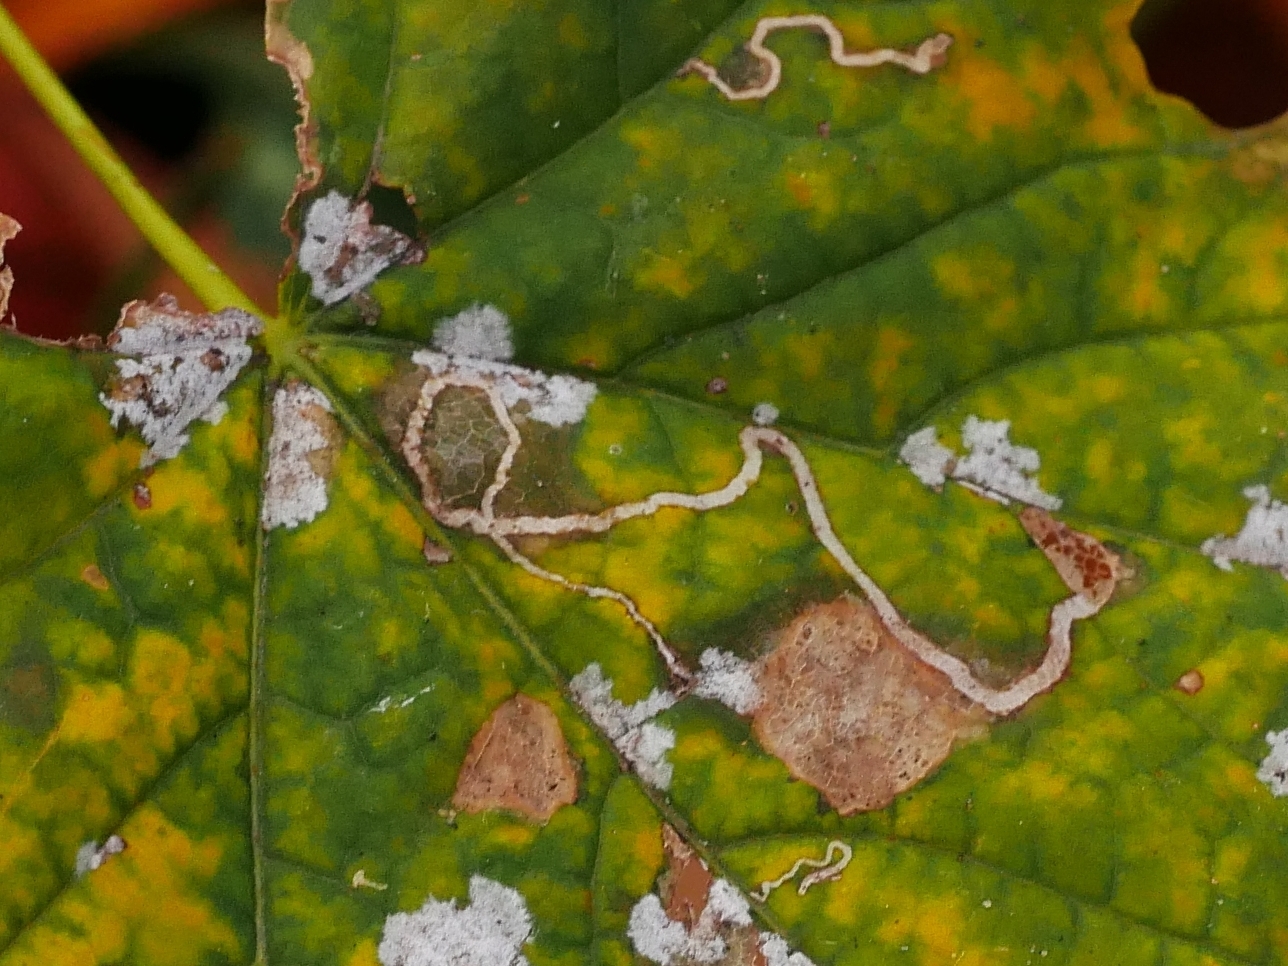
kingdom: Fungi
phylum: Ascomycota
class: Leotiomycetes
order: Helotiales
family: Erysiphaceae
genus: Sawadaea
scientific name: Sawadaea tulasnei
